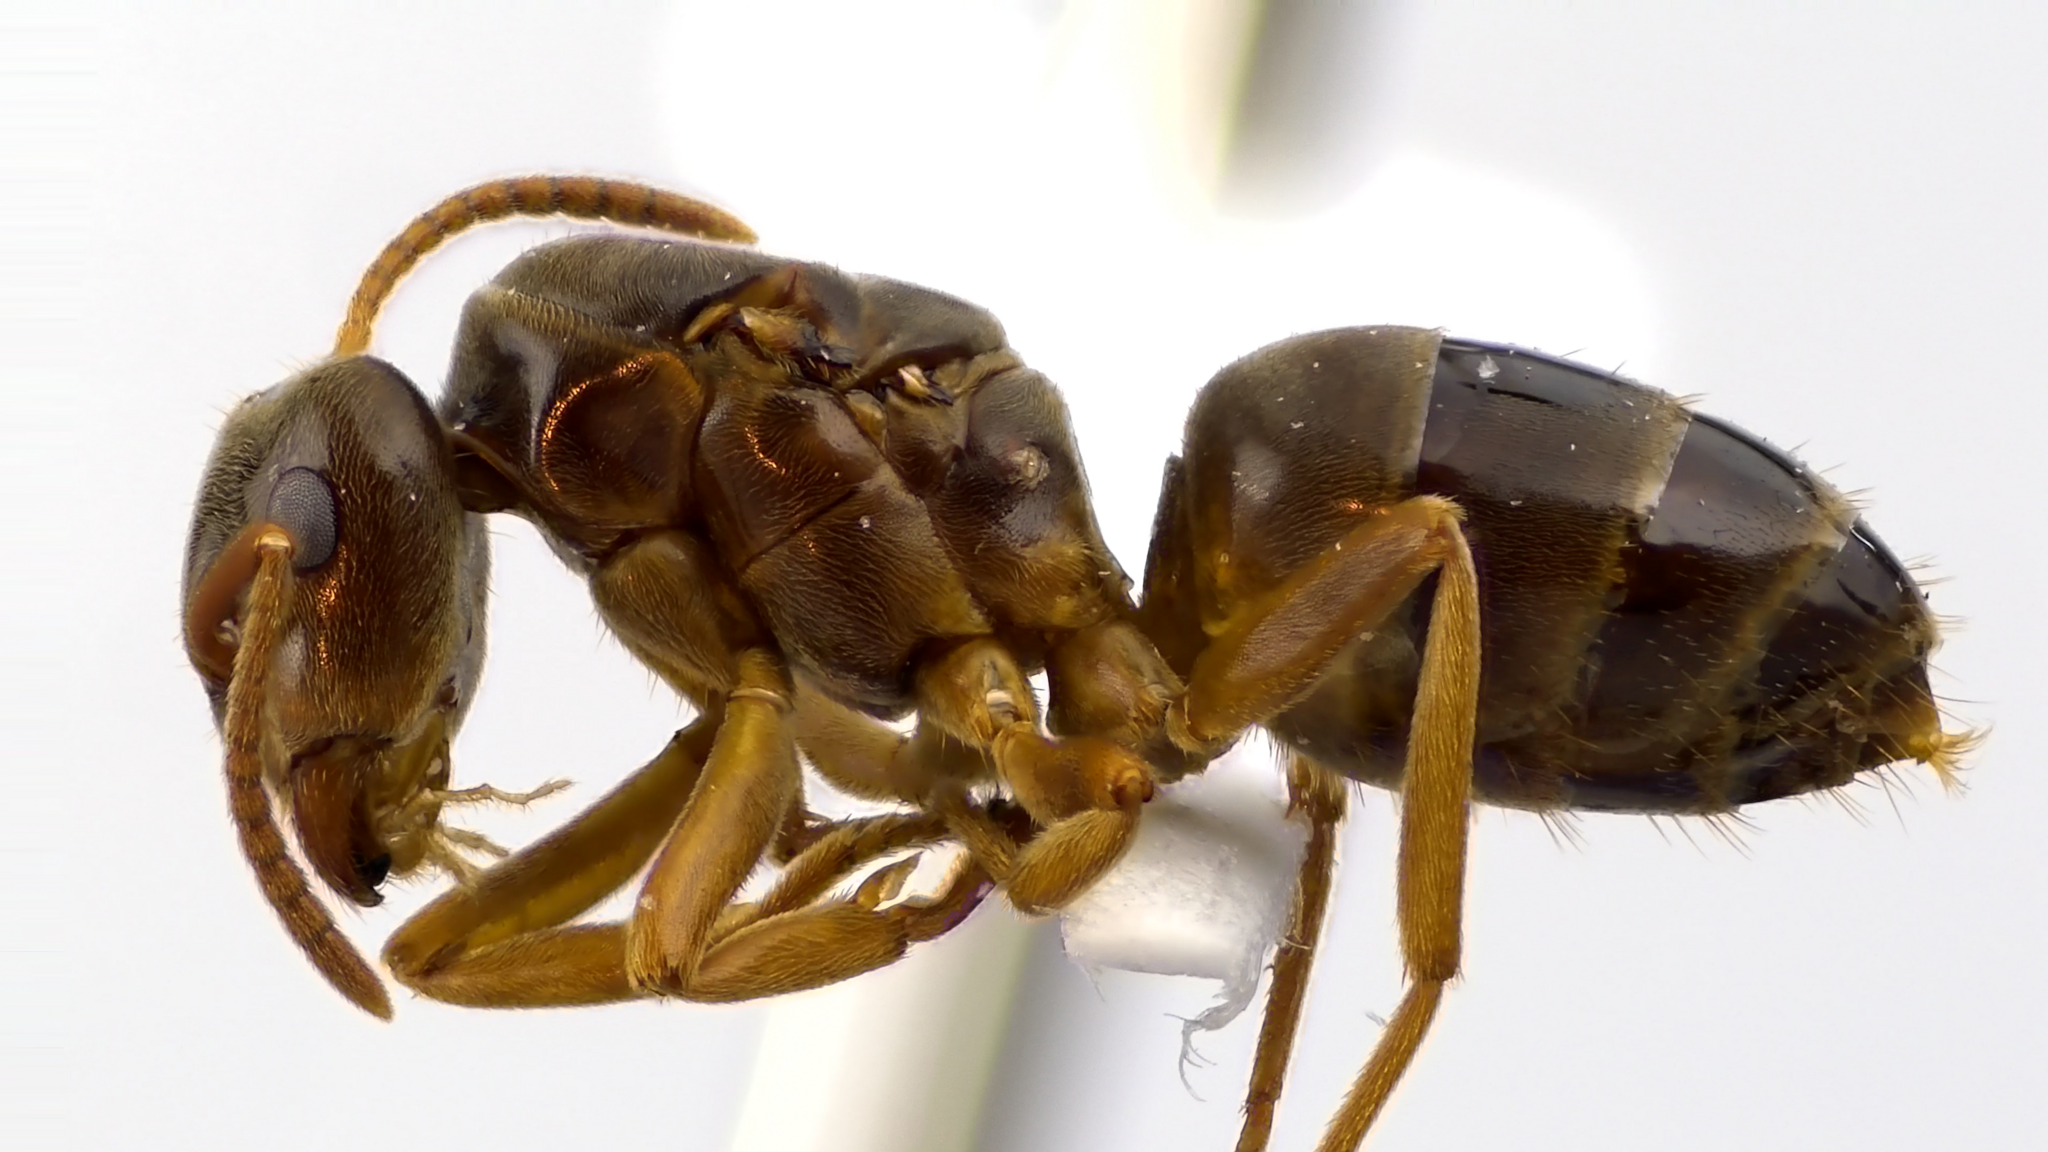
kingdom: Animalia
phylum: Arthropoda
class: Insecta
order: Hymenoptera
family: Formicidae
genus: Lasius
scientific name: Lasius speculiventris
